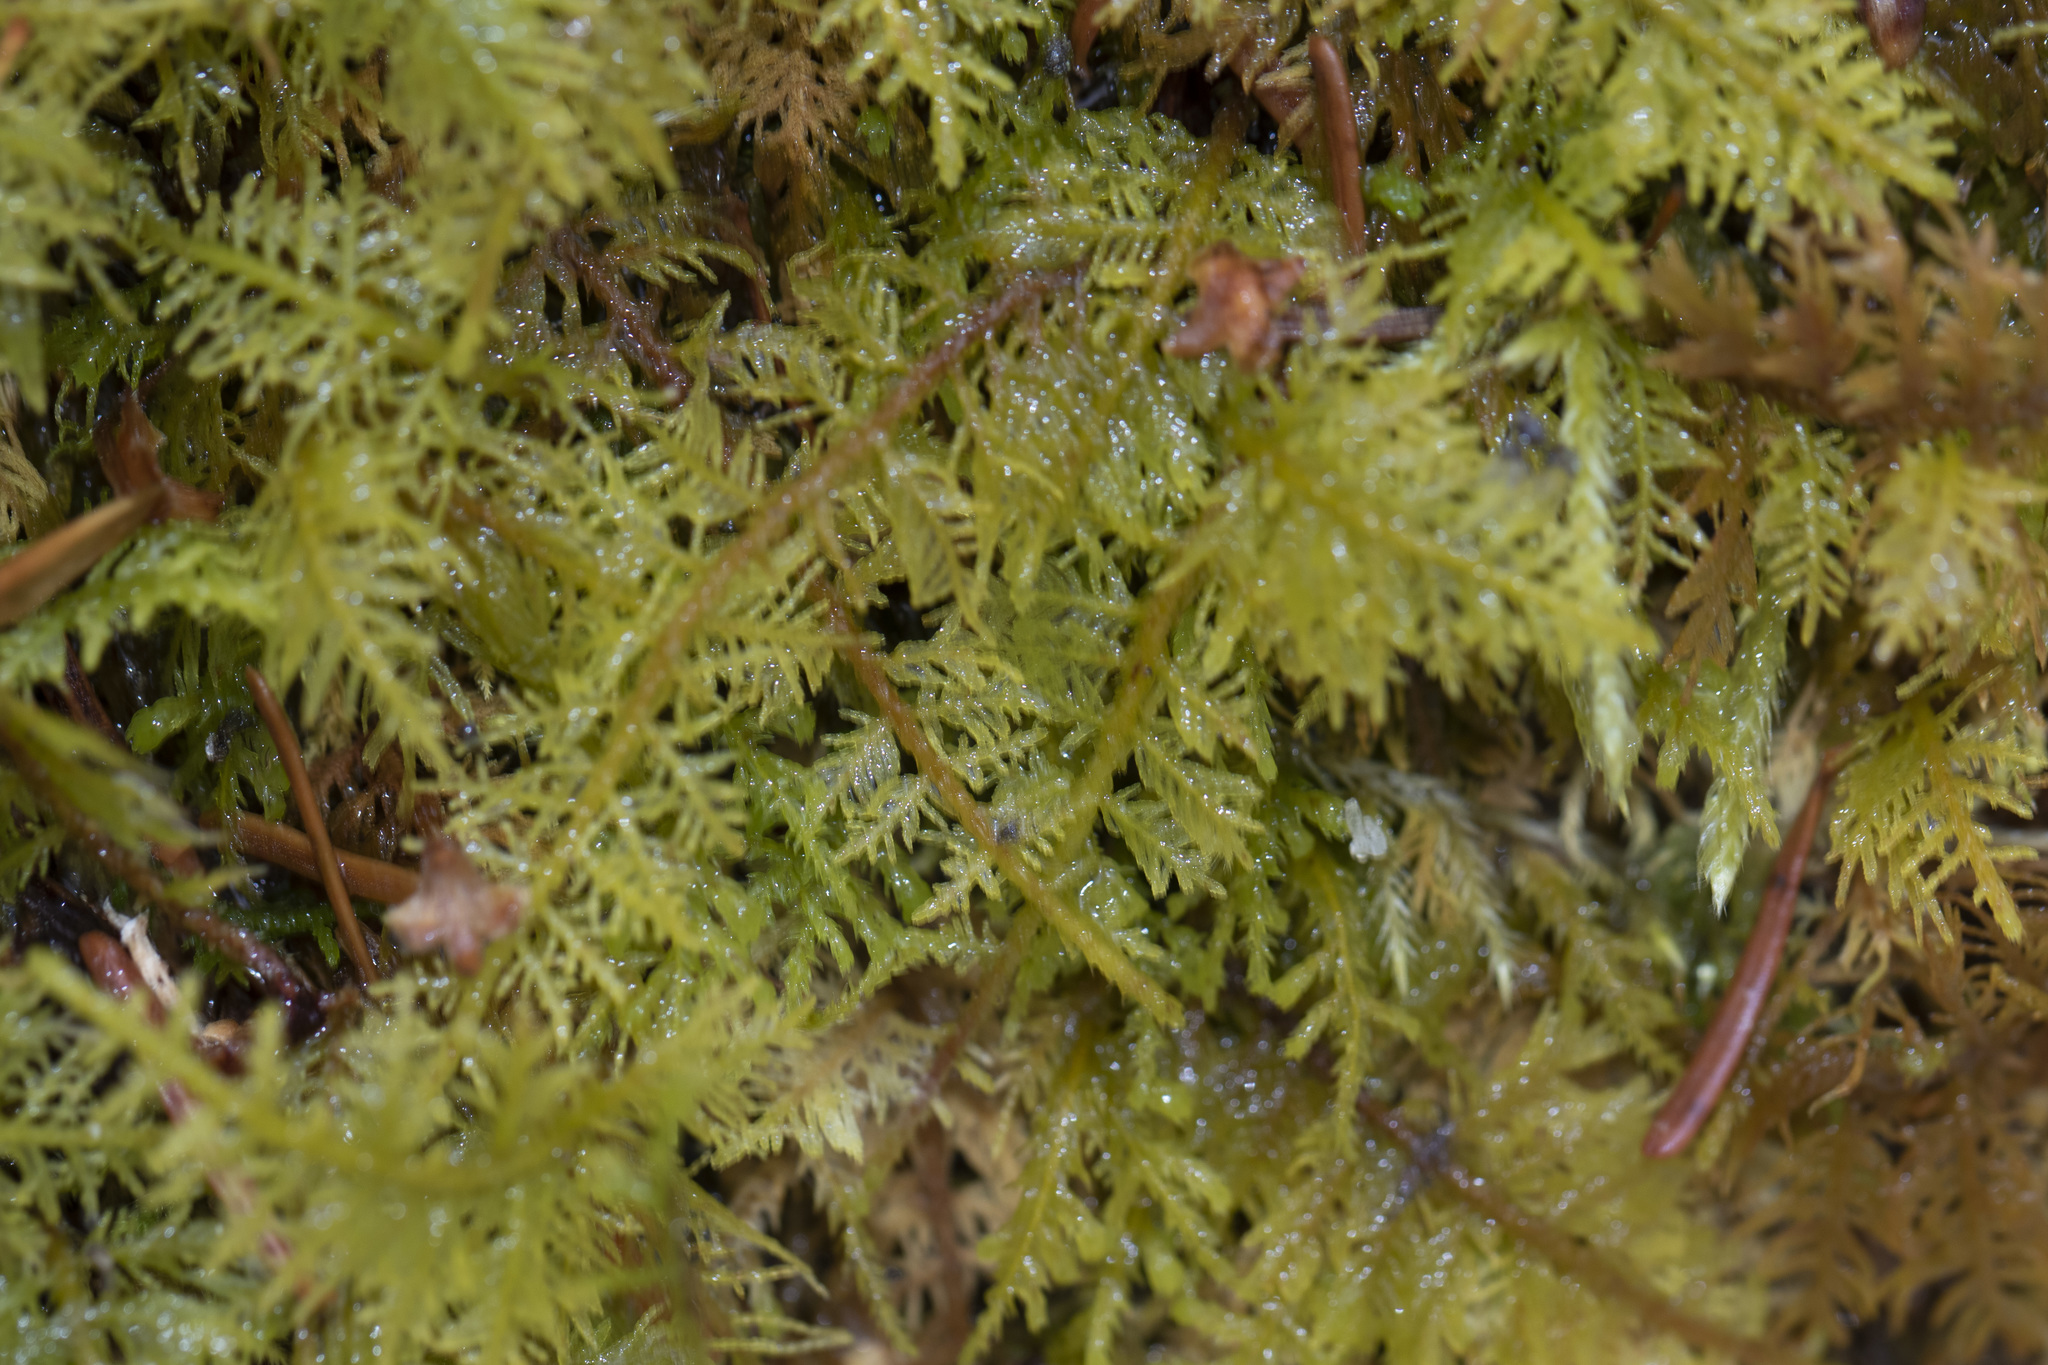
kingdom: Plantae
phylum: Bryophyta
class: Bryopsida
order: Hypnales
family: Thuidiaceae
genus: Thuidium
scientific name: Thuidium delicatulum
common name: Delicate fern moss
